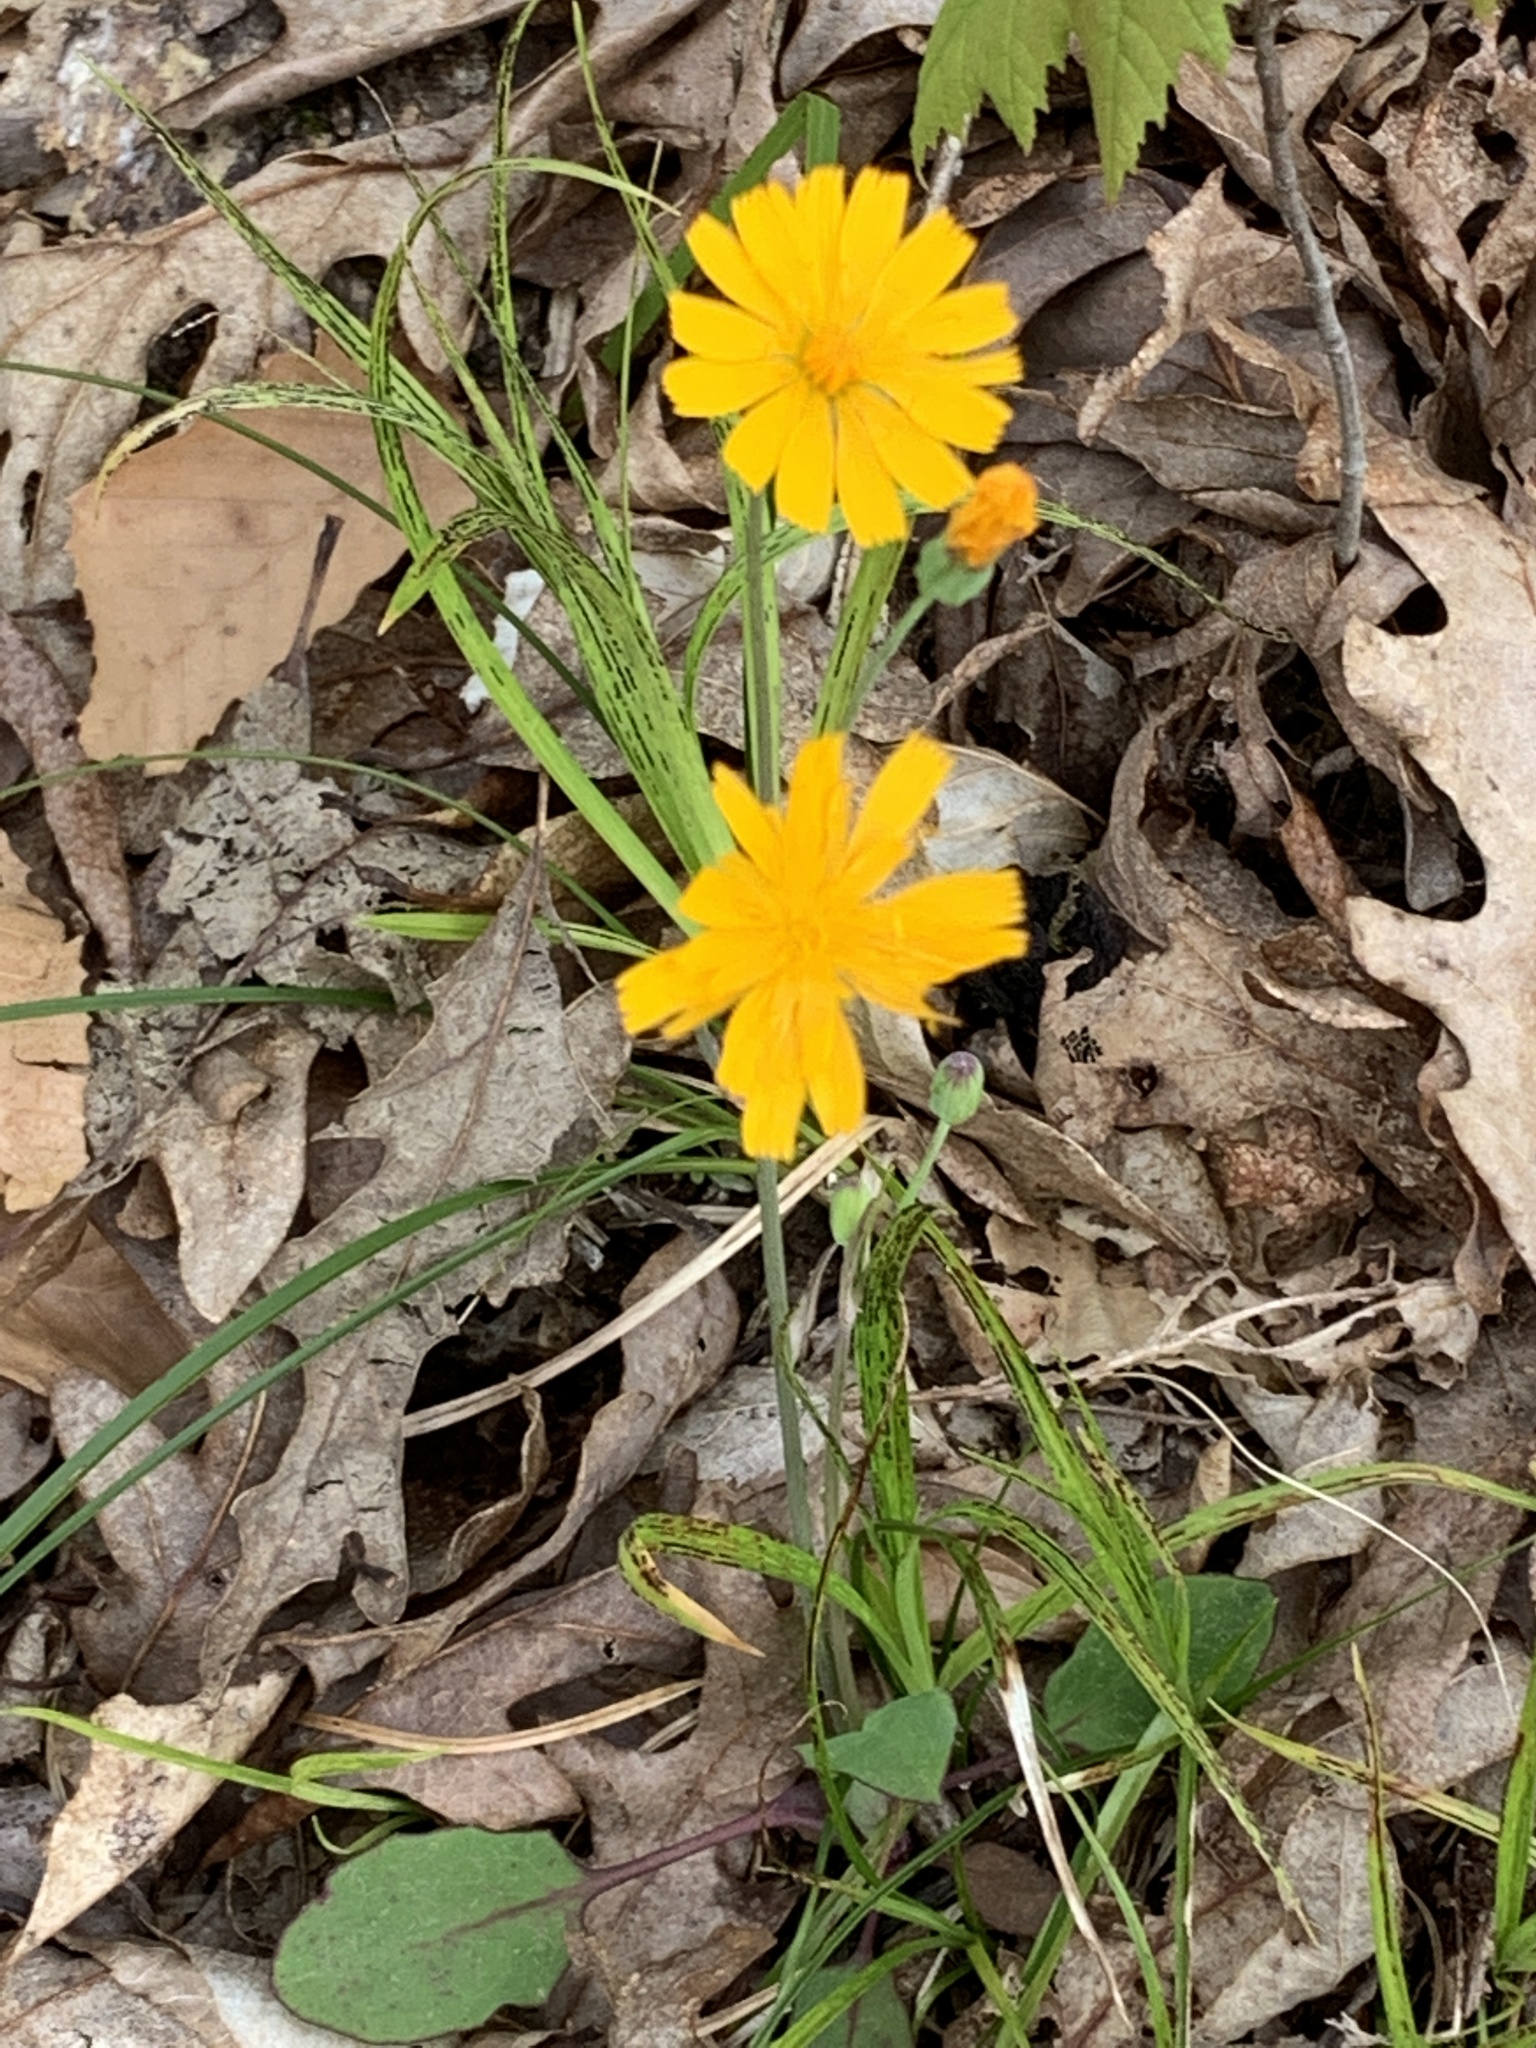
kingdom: Plantae
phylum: Tracheophyta
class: Magnoliopsida
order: Asterales
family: Asteraceae
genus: Krigia
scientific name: Krigia biflora
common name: Orange dwarf-dandelion
